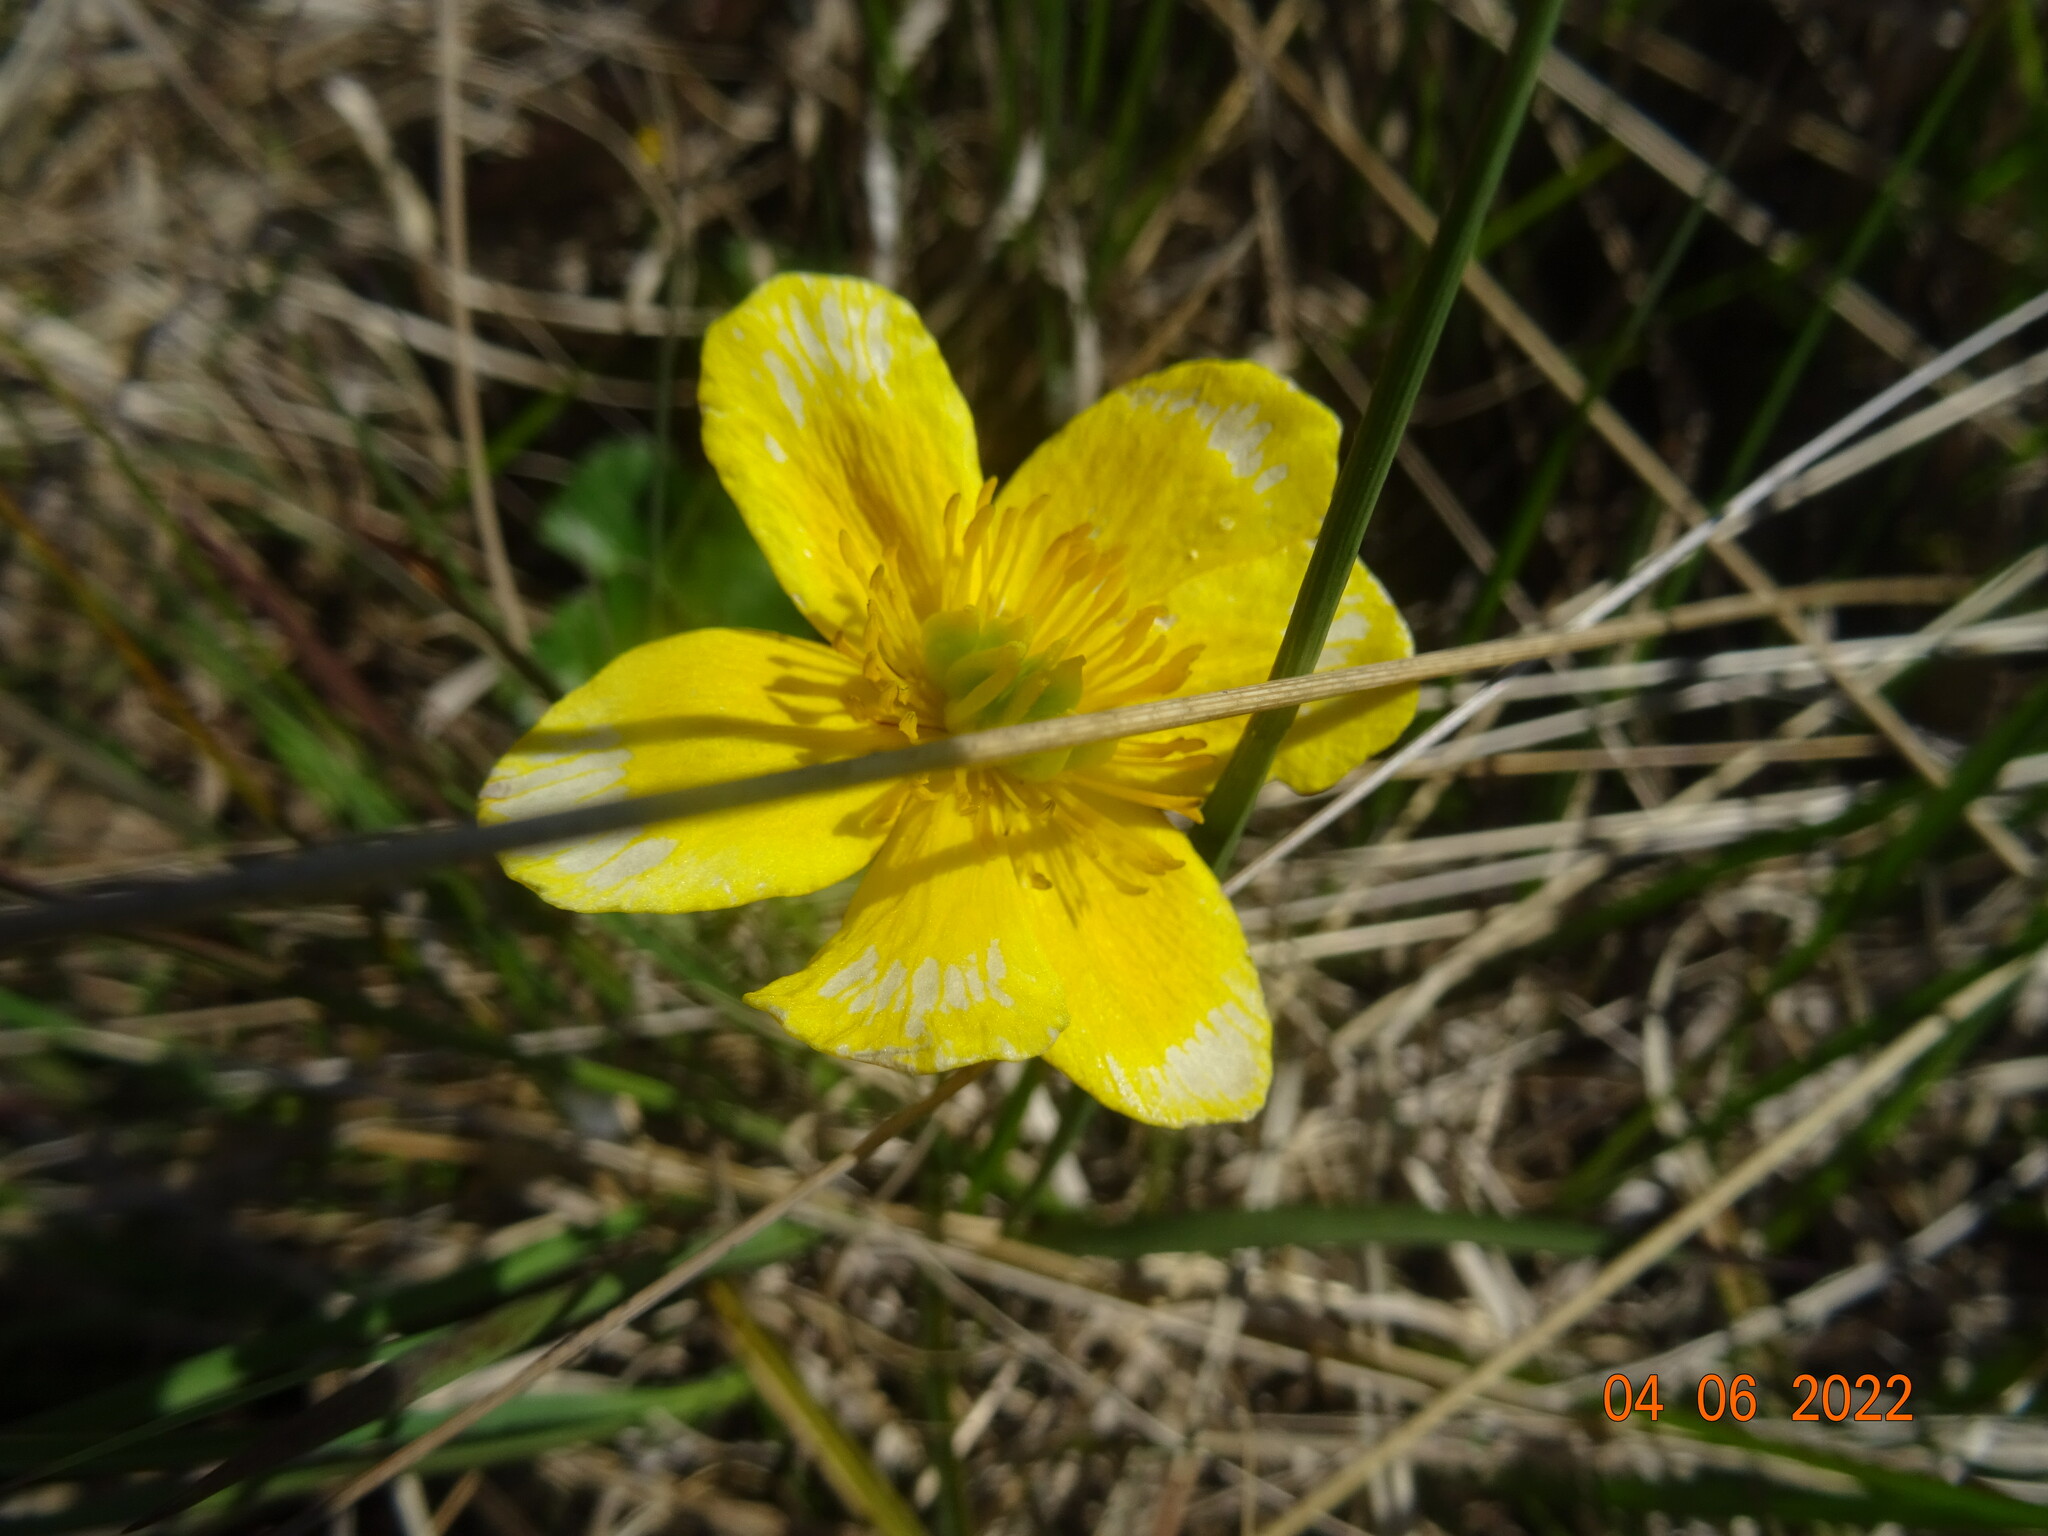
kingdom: Plantae
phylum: Tracheophyta
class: Magnoliopsida
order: Ranunculales
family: Ranunculaceae
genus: Caltha
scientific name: Caltha palustris
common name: Marsh marigold
